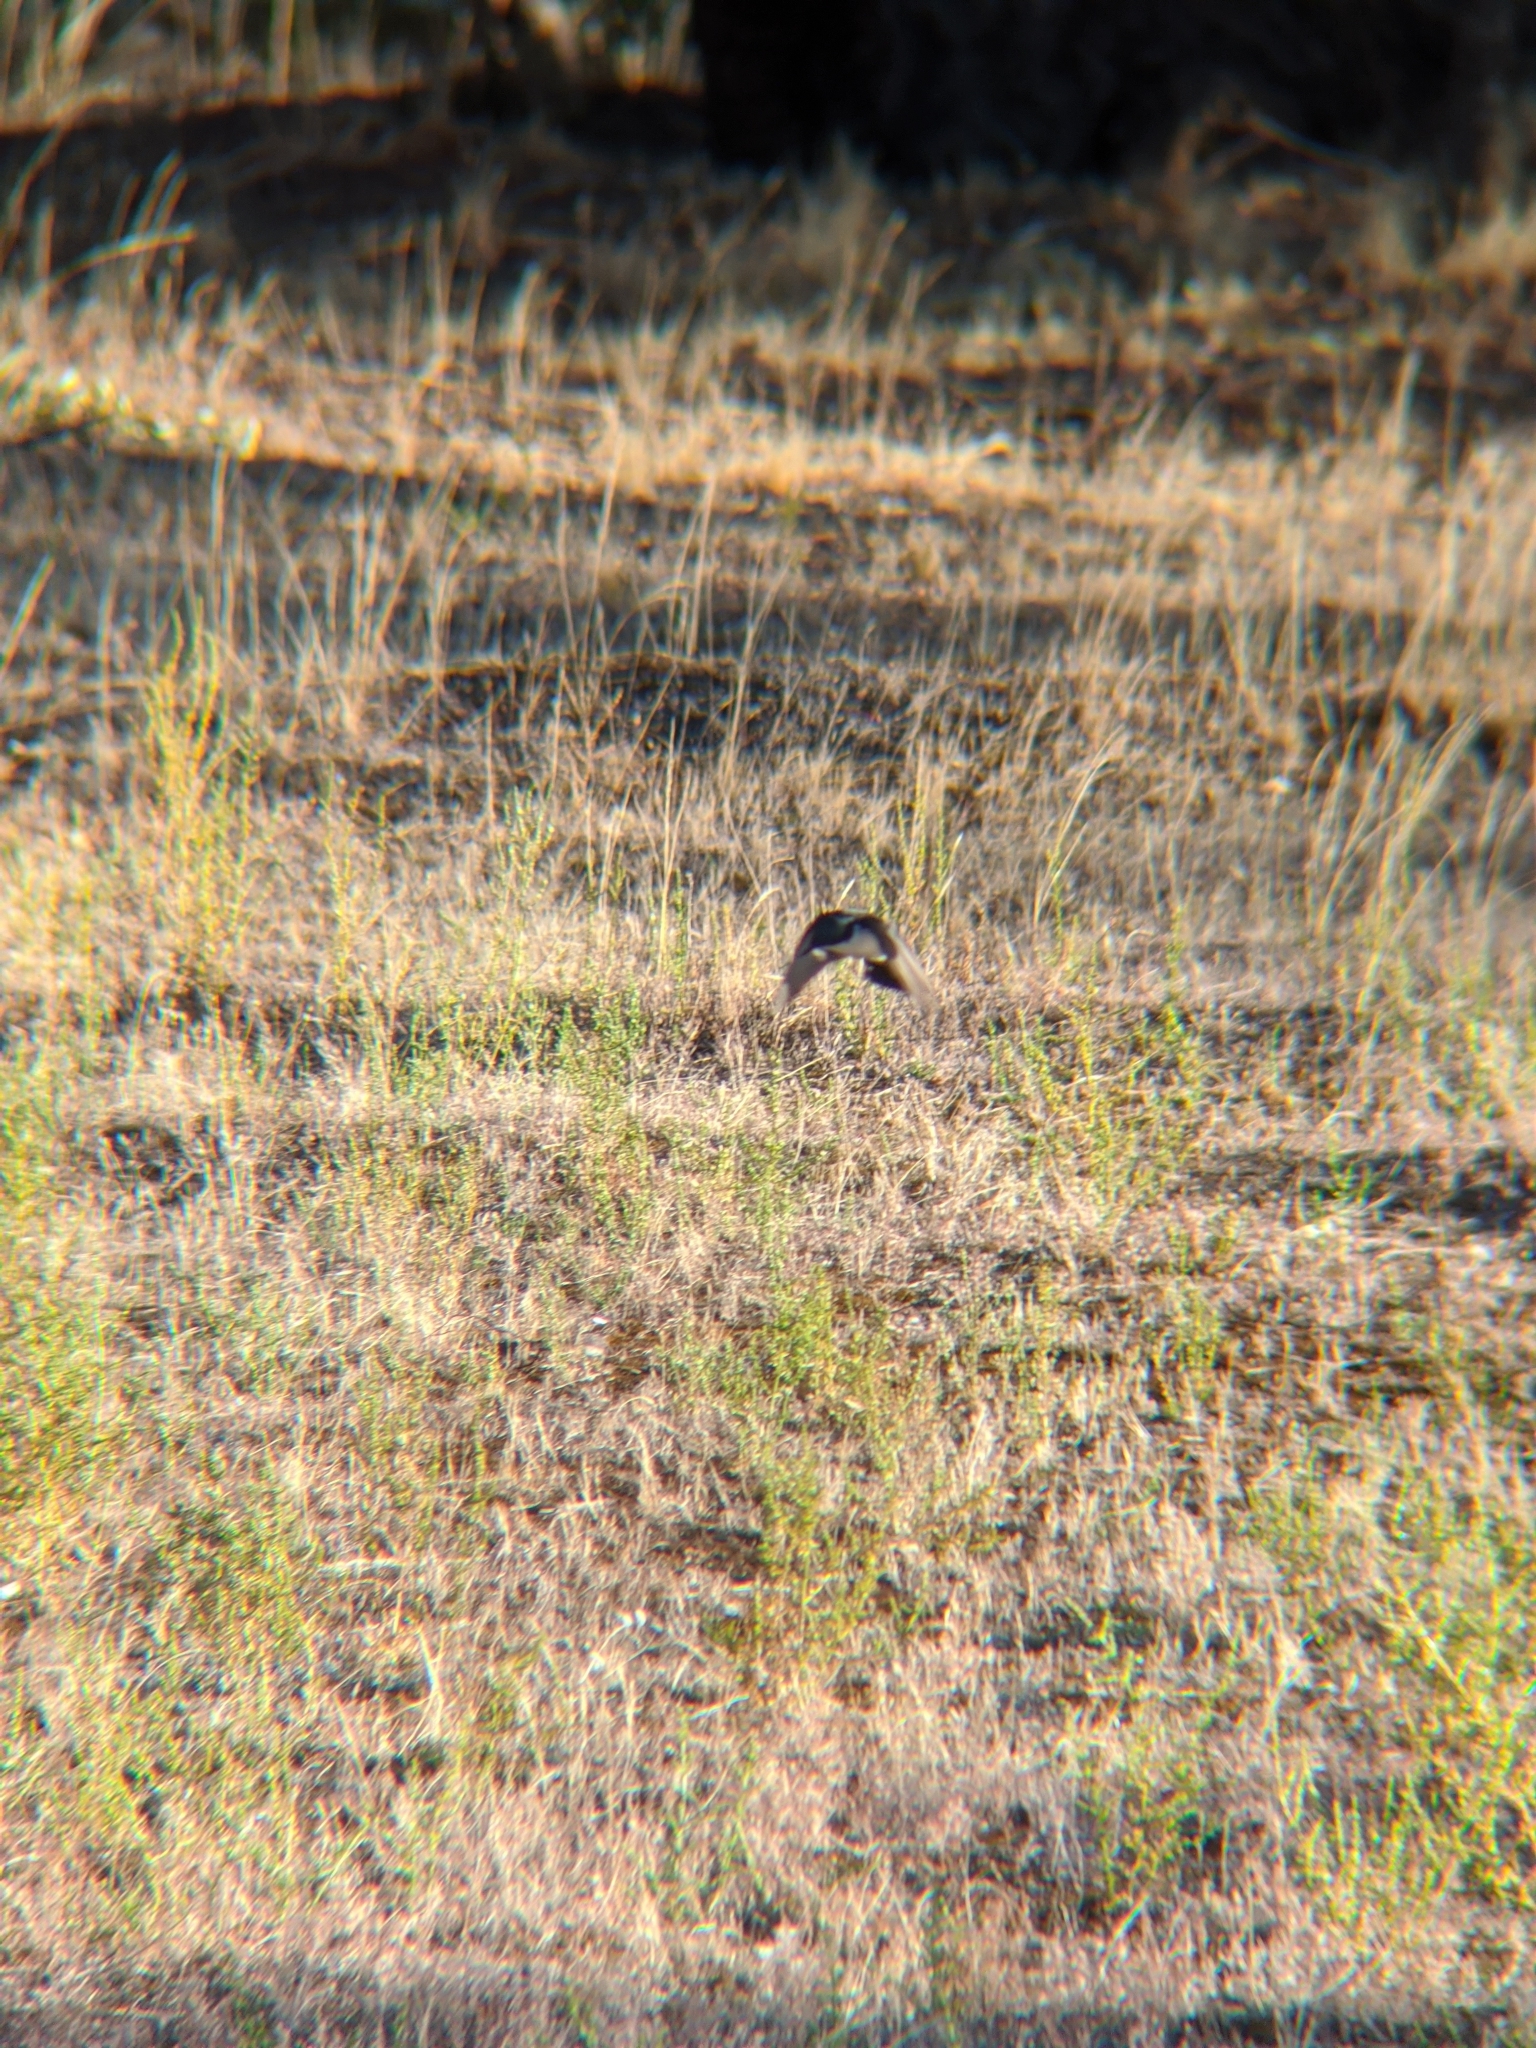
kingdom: Animalia
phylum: Chordata
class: Aves
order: Passeriformes
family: Monarchidae
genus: Myiagra
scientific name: Myiagra inquieta
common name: Restless flycatcher
